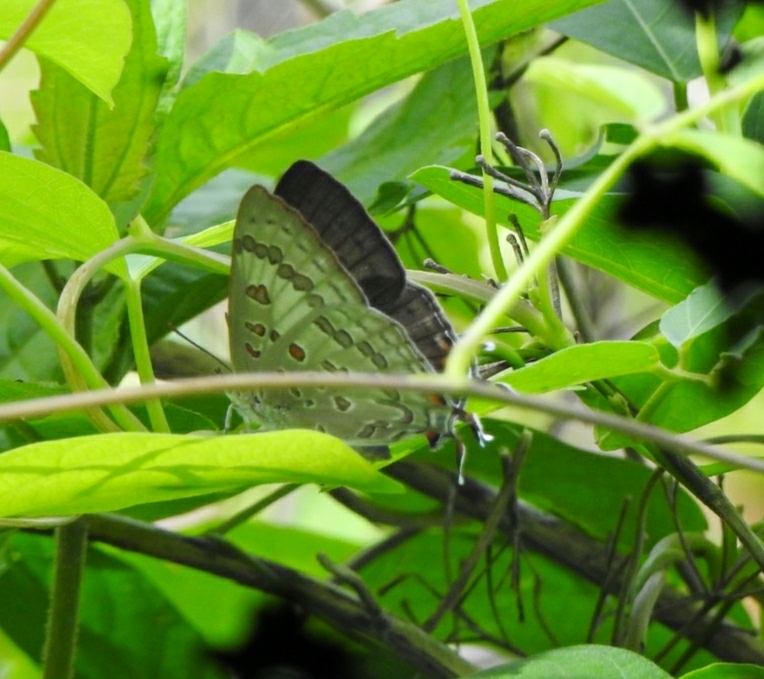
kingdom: Animalia
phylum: Arthropoda
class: Insecta
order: Lepidoptera
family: Lycaenidae
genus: Zesius
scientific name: Zesius chrysomallus
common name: Redspot
